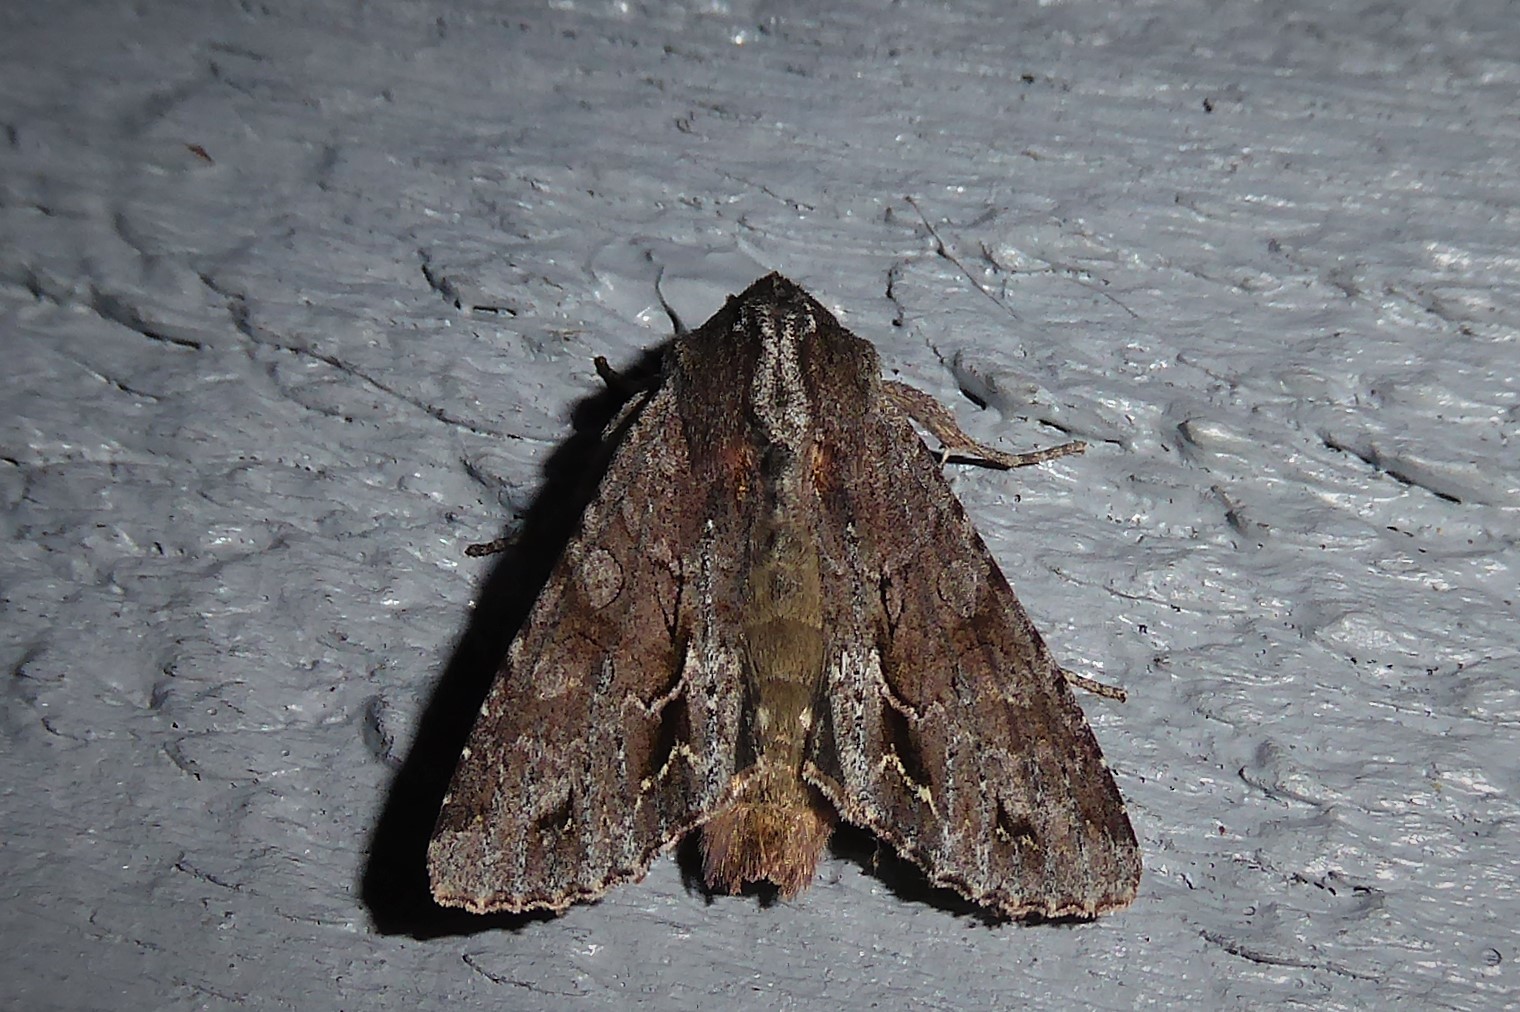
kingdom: Animalia
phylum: Arthropoda
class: Insecta
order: Lepidoptera
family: Noctuidae
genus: Ichneutica
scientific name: Ichneutica
